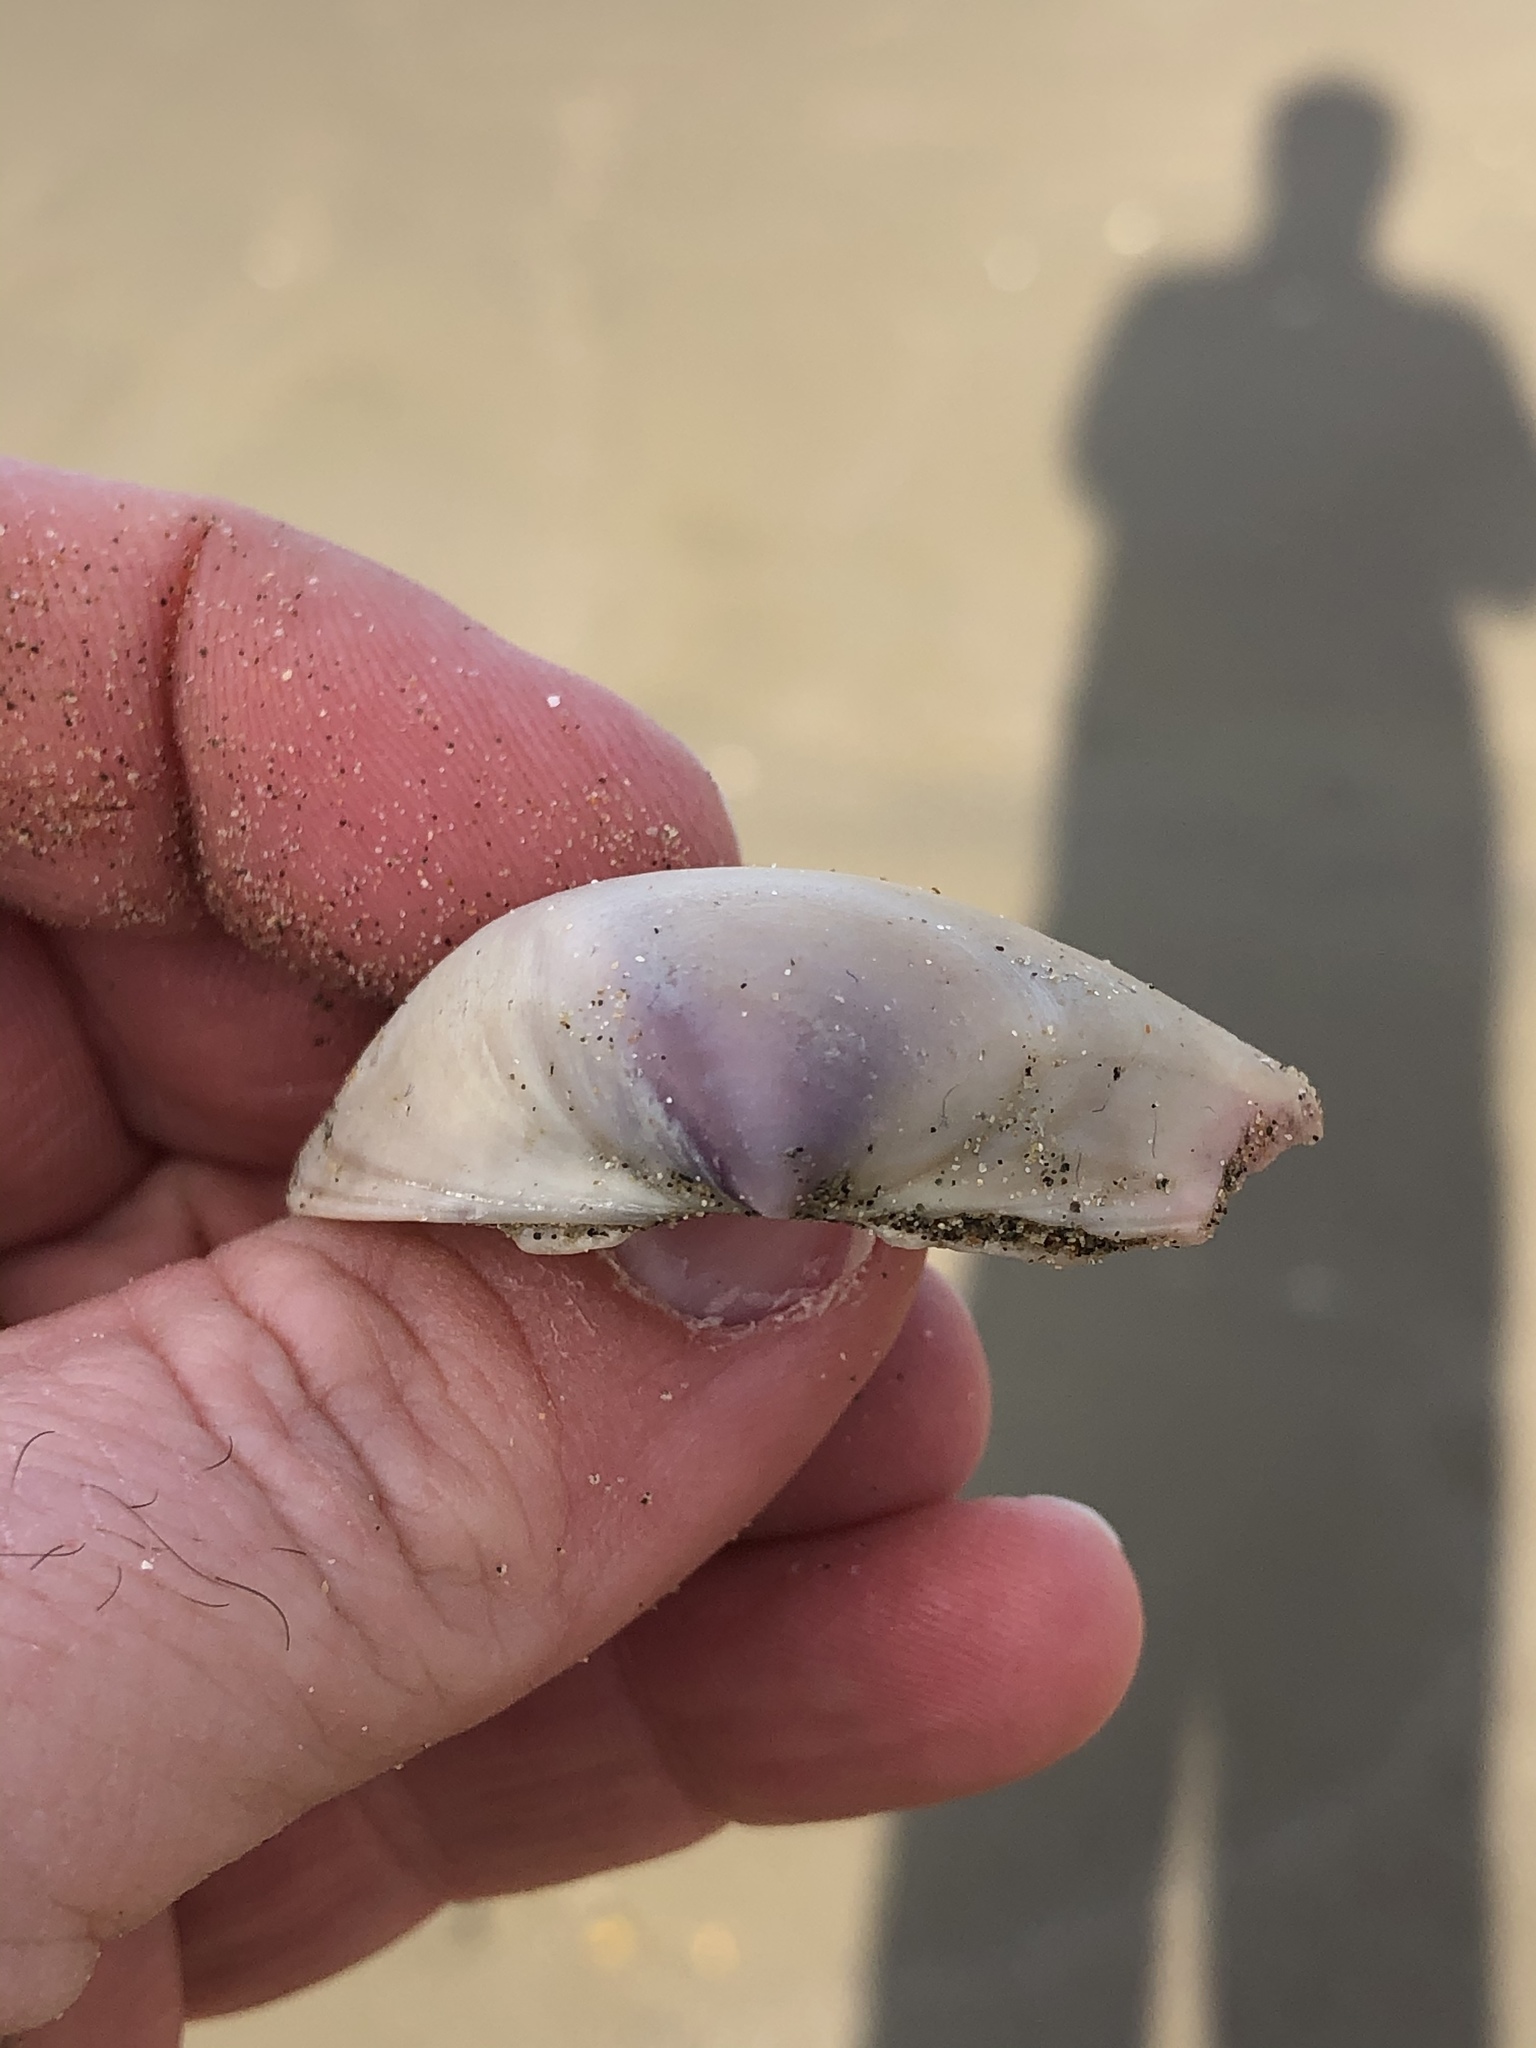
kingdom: Animalia
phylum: Mollusca
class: Bivalvia
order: Venerida
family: Mactridae
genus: Crassula
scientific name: Crassula aequilatera
